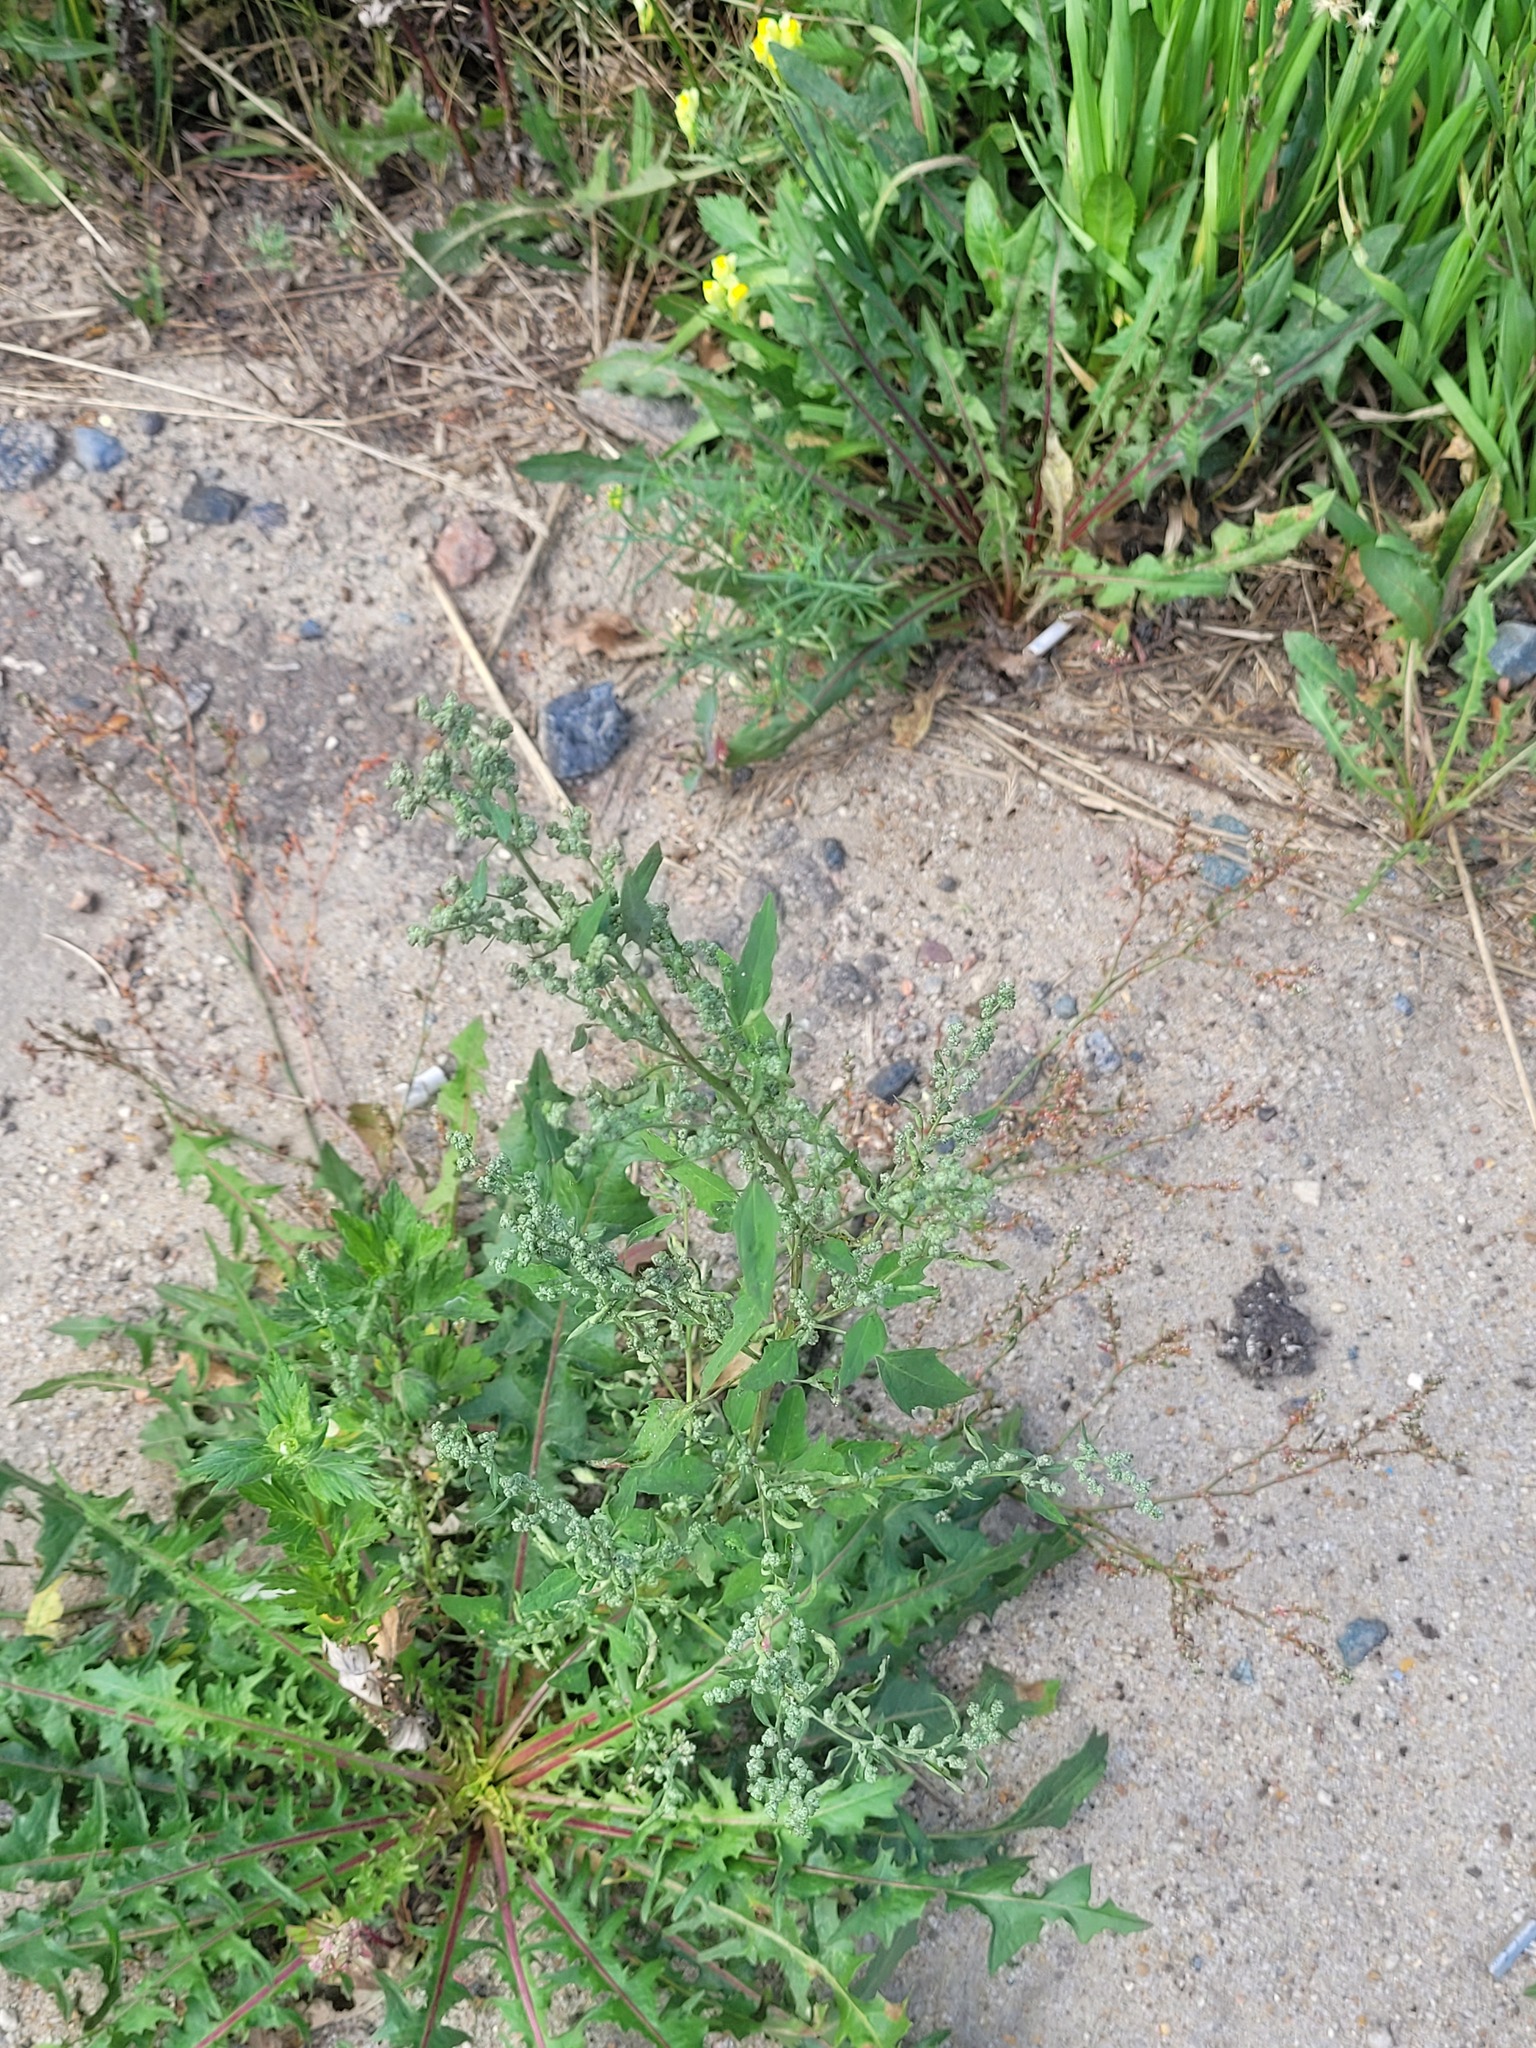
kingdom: Plantae
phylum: Tracheophyta
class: Magnoliopsida
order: Caryophyllales
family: Amaranthaceae
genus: Chenopodium
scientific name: Chenopodium album
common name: Fat-hen
